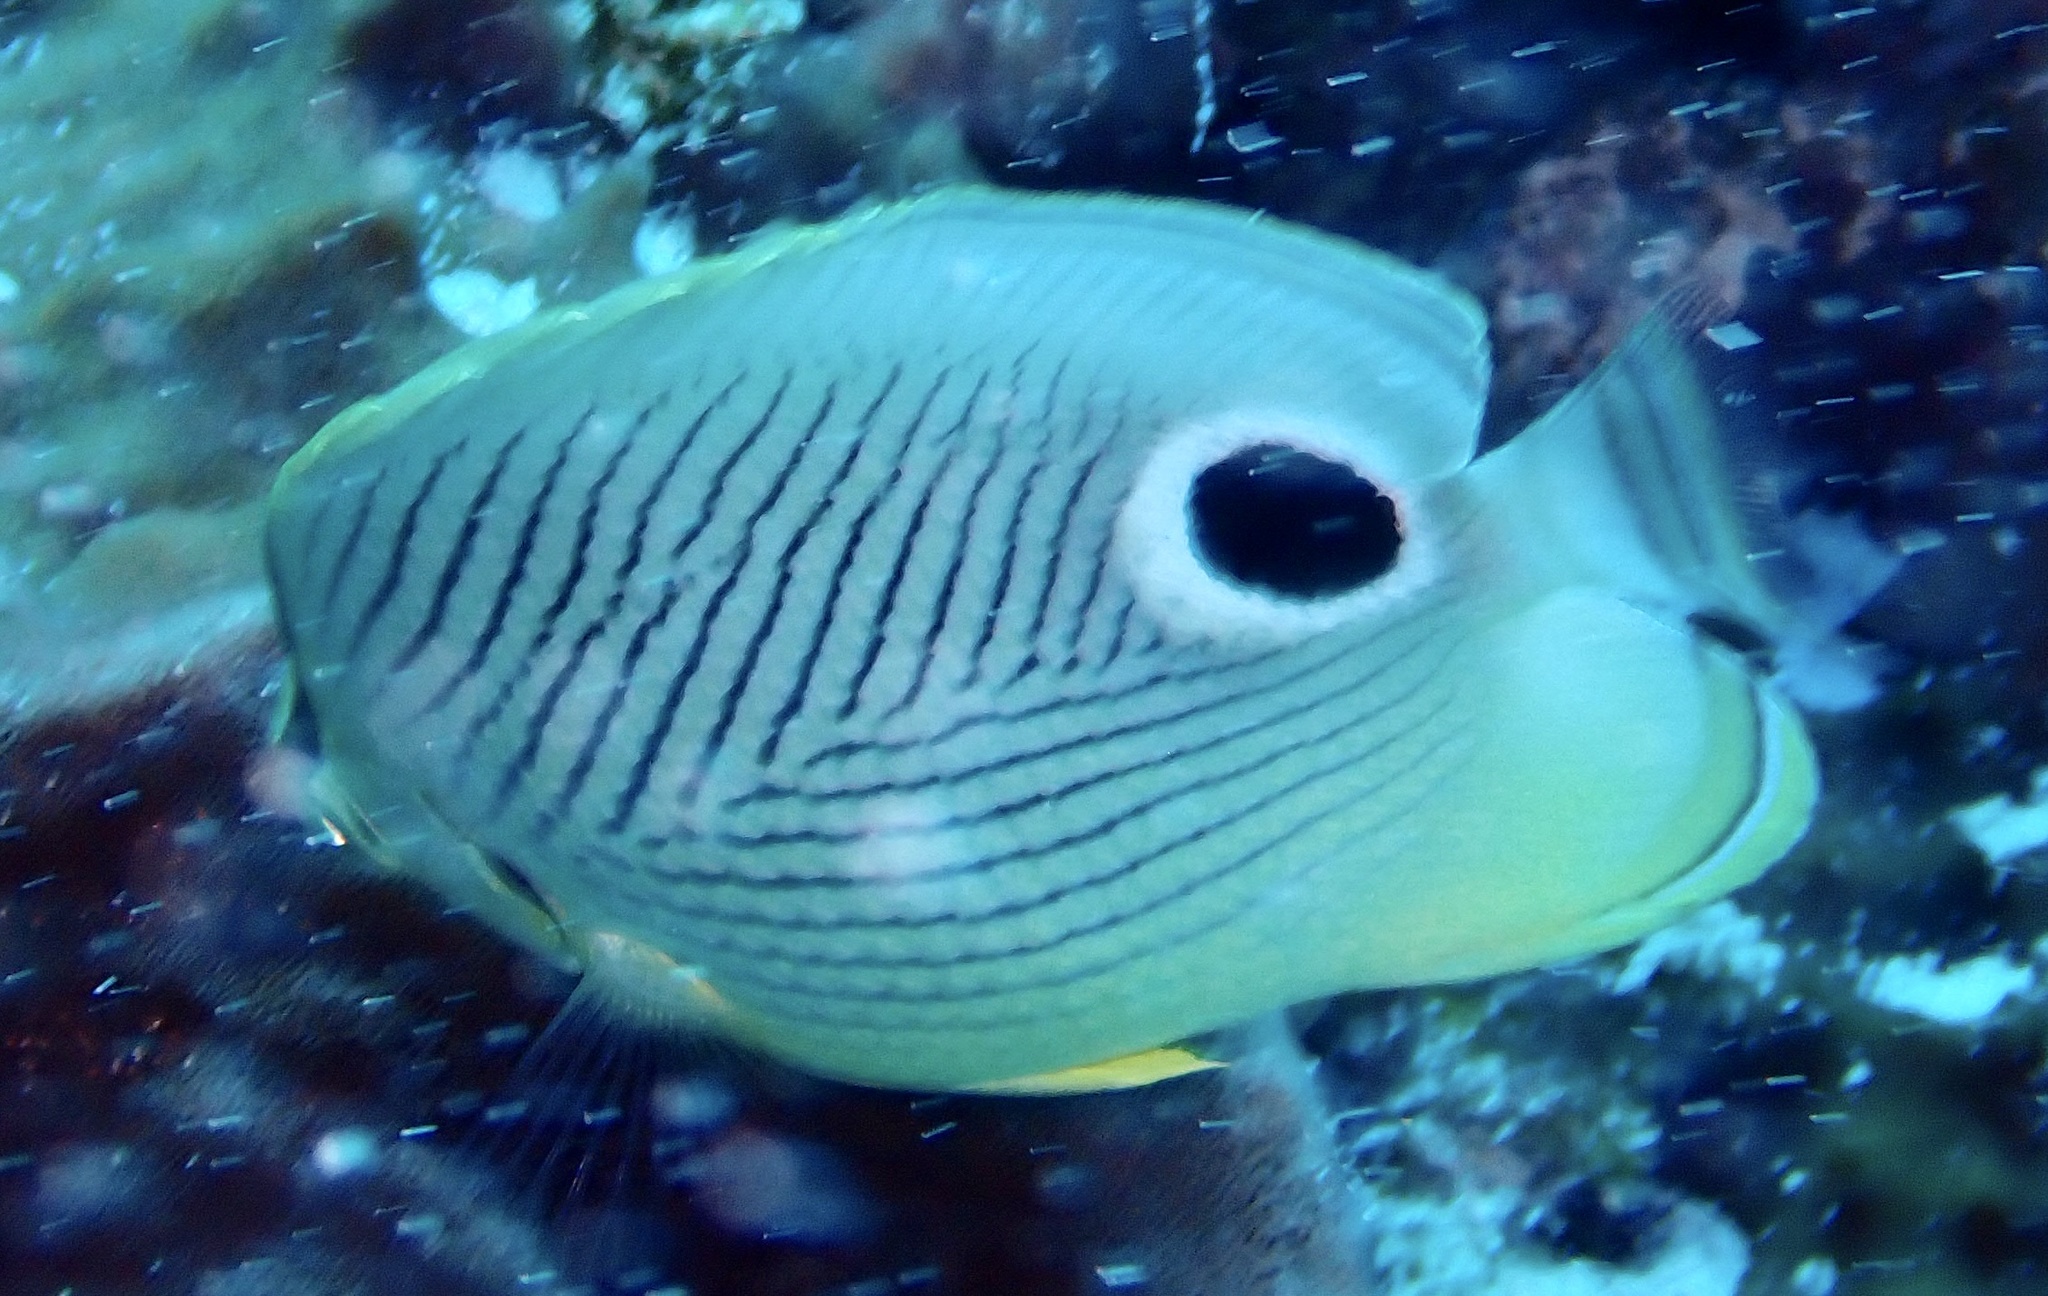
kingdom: Animalia
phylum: Chordata
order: Perciformes
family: Chaetodontidae
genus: Chaetodon
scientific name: Chaetodon capistratus
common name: Kete
